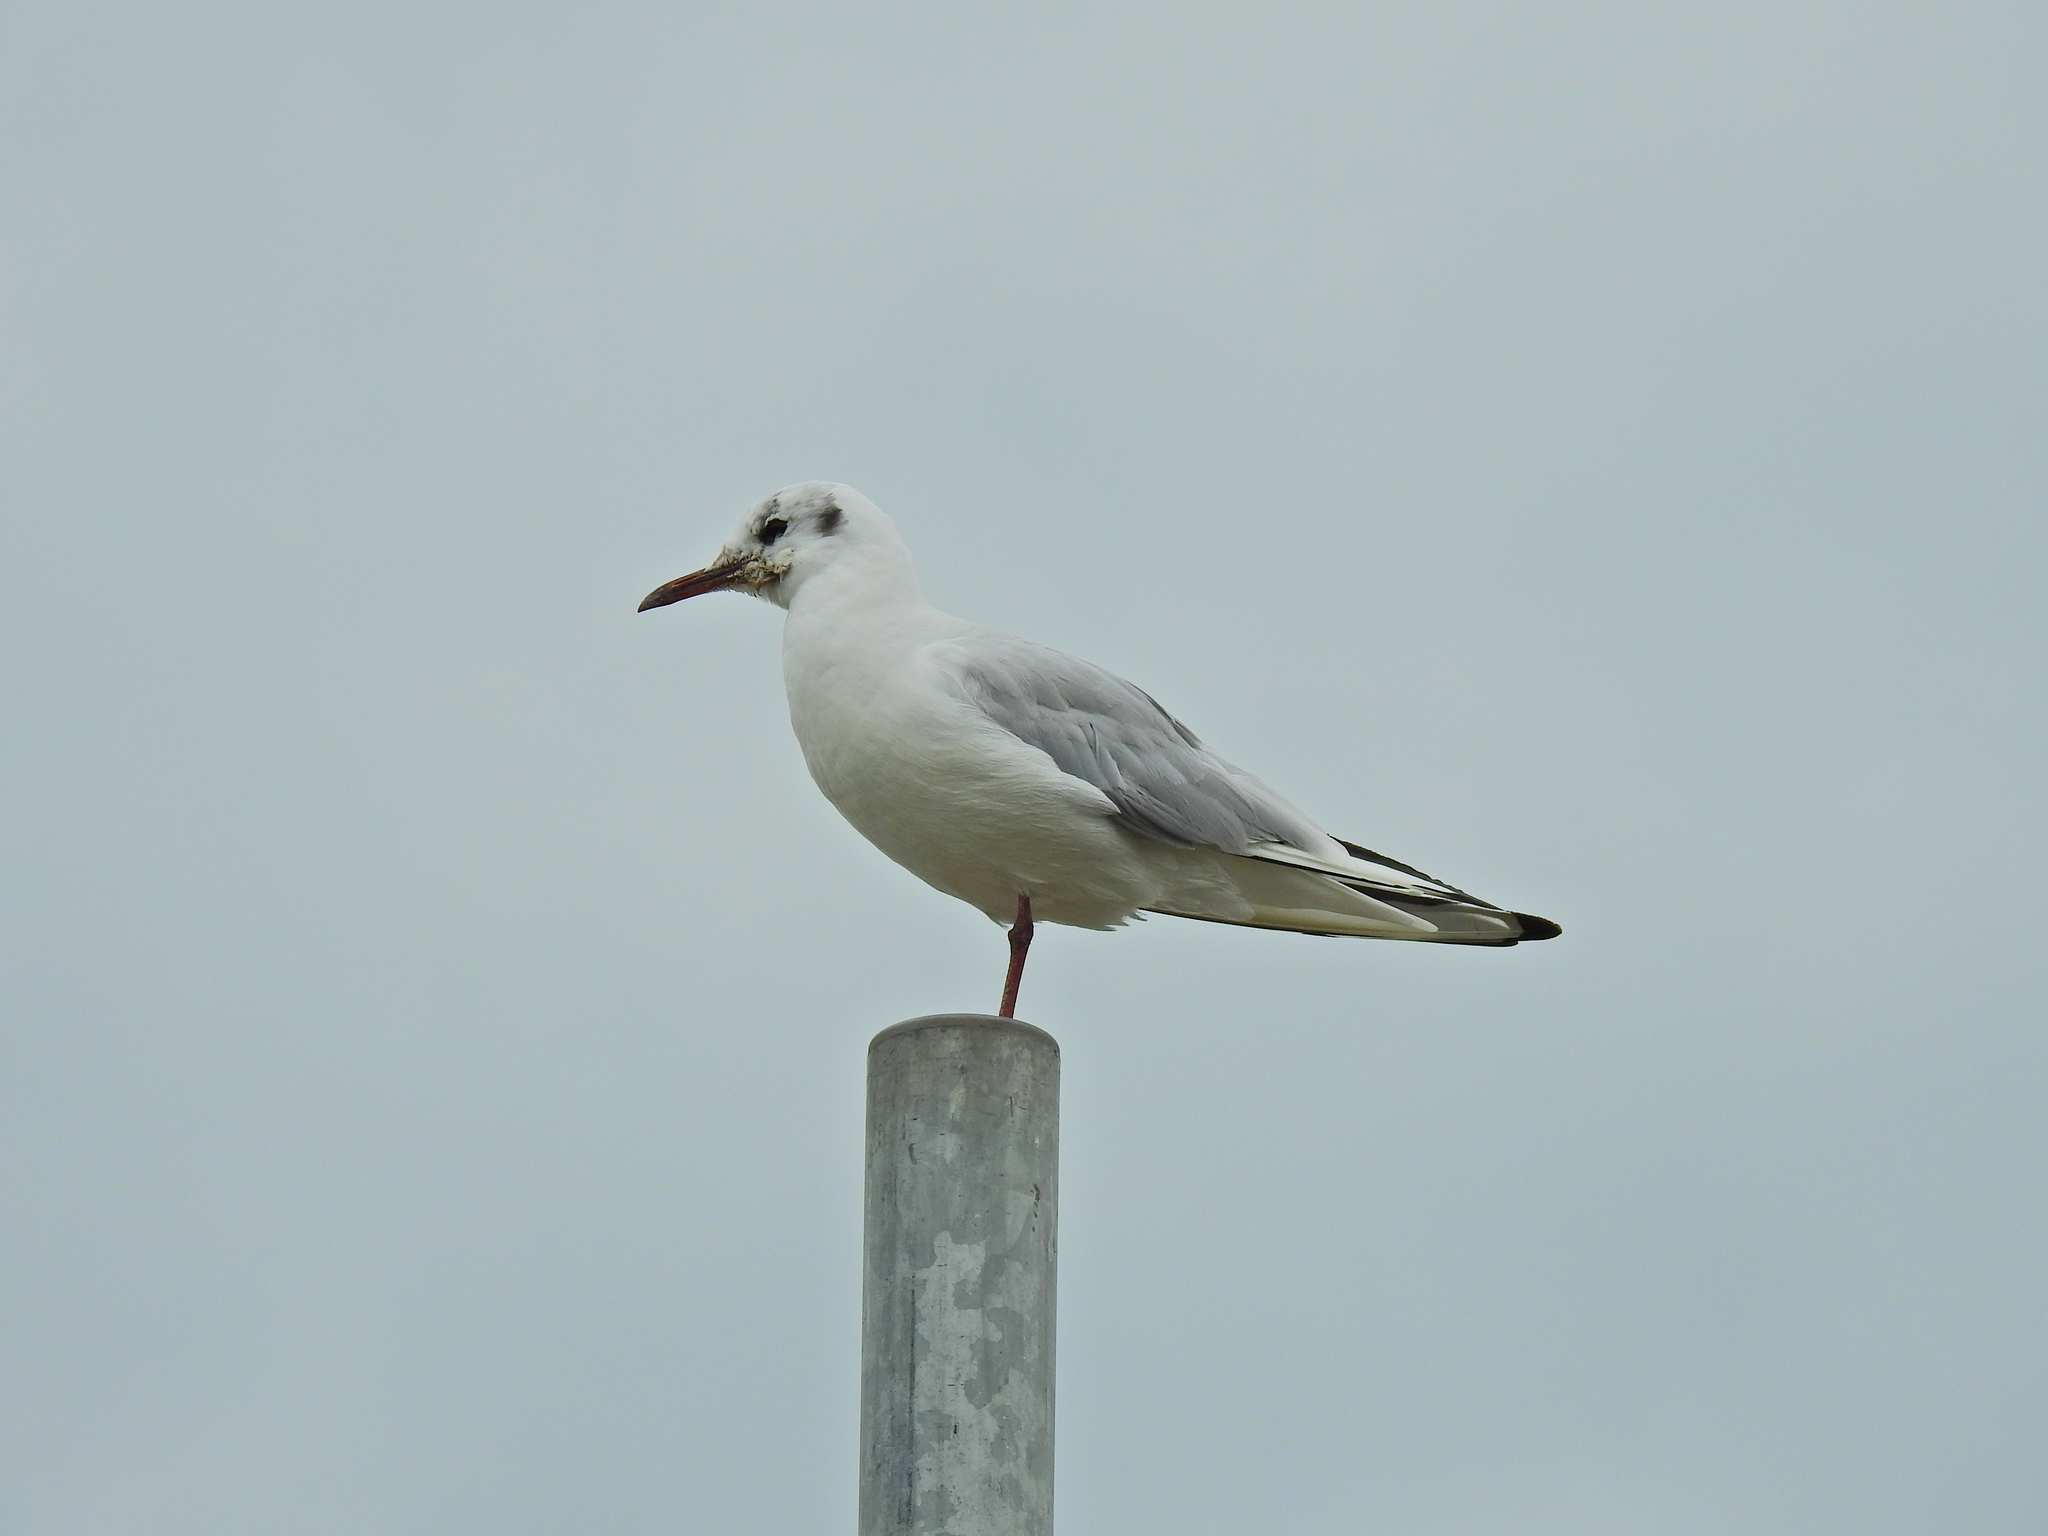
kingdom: Animalia
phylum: Chordata
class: Aves
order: Charadriiformes
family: Laridae
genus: Chroicocephalus
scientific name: Chroicocephalus ridibundus
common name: Black-headed gull
